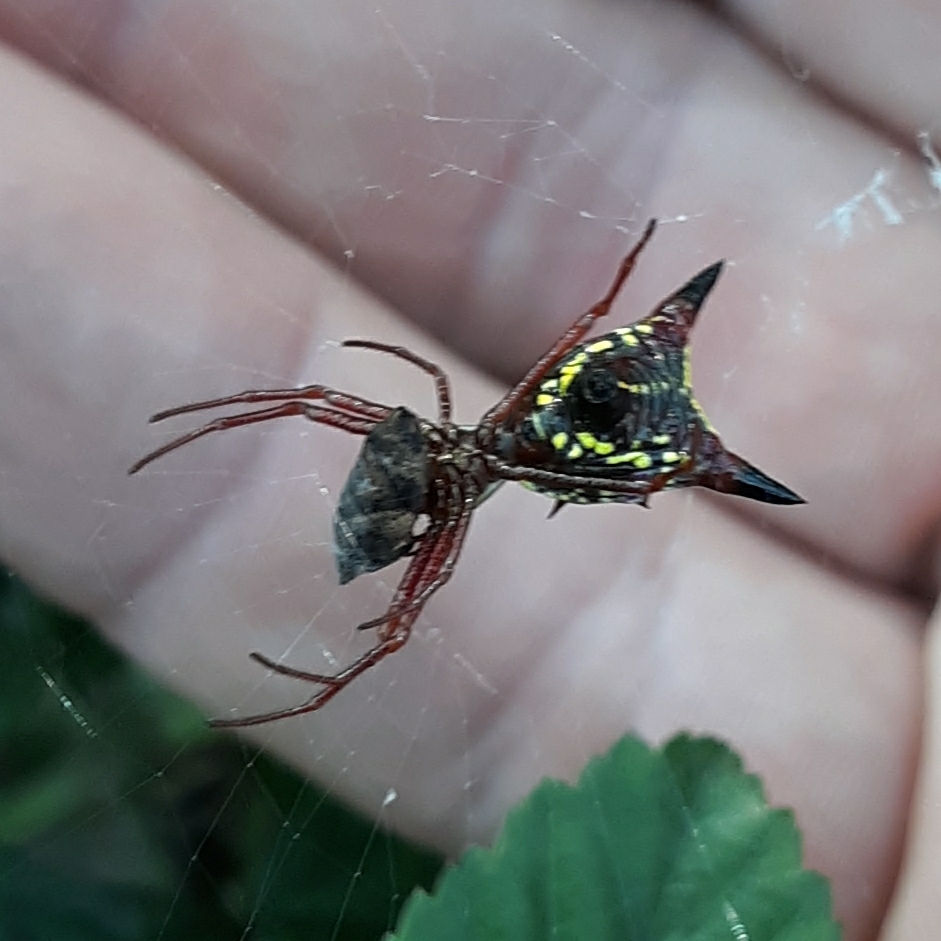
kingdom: Animalia
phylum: Arthropoda
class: Arachnida
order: Araneae
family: Araneidae
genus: Micrathena
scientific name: Micrathena sagittata
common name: Orb weavers
